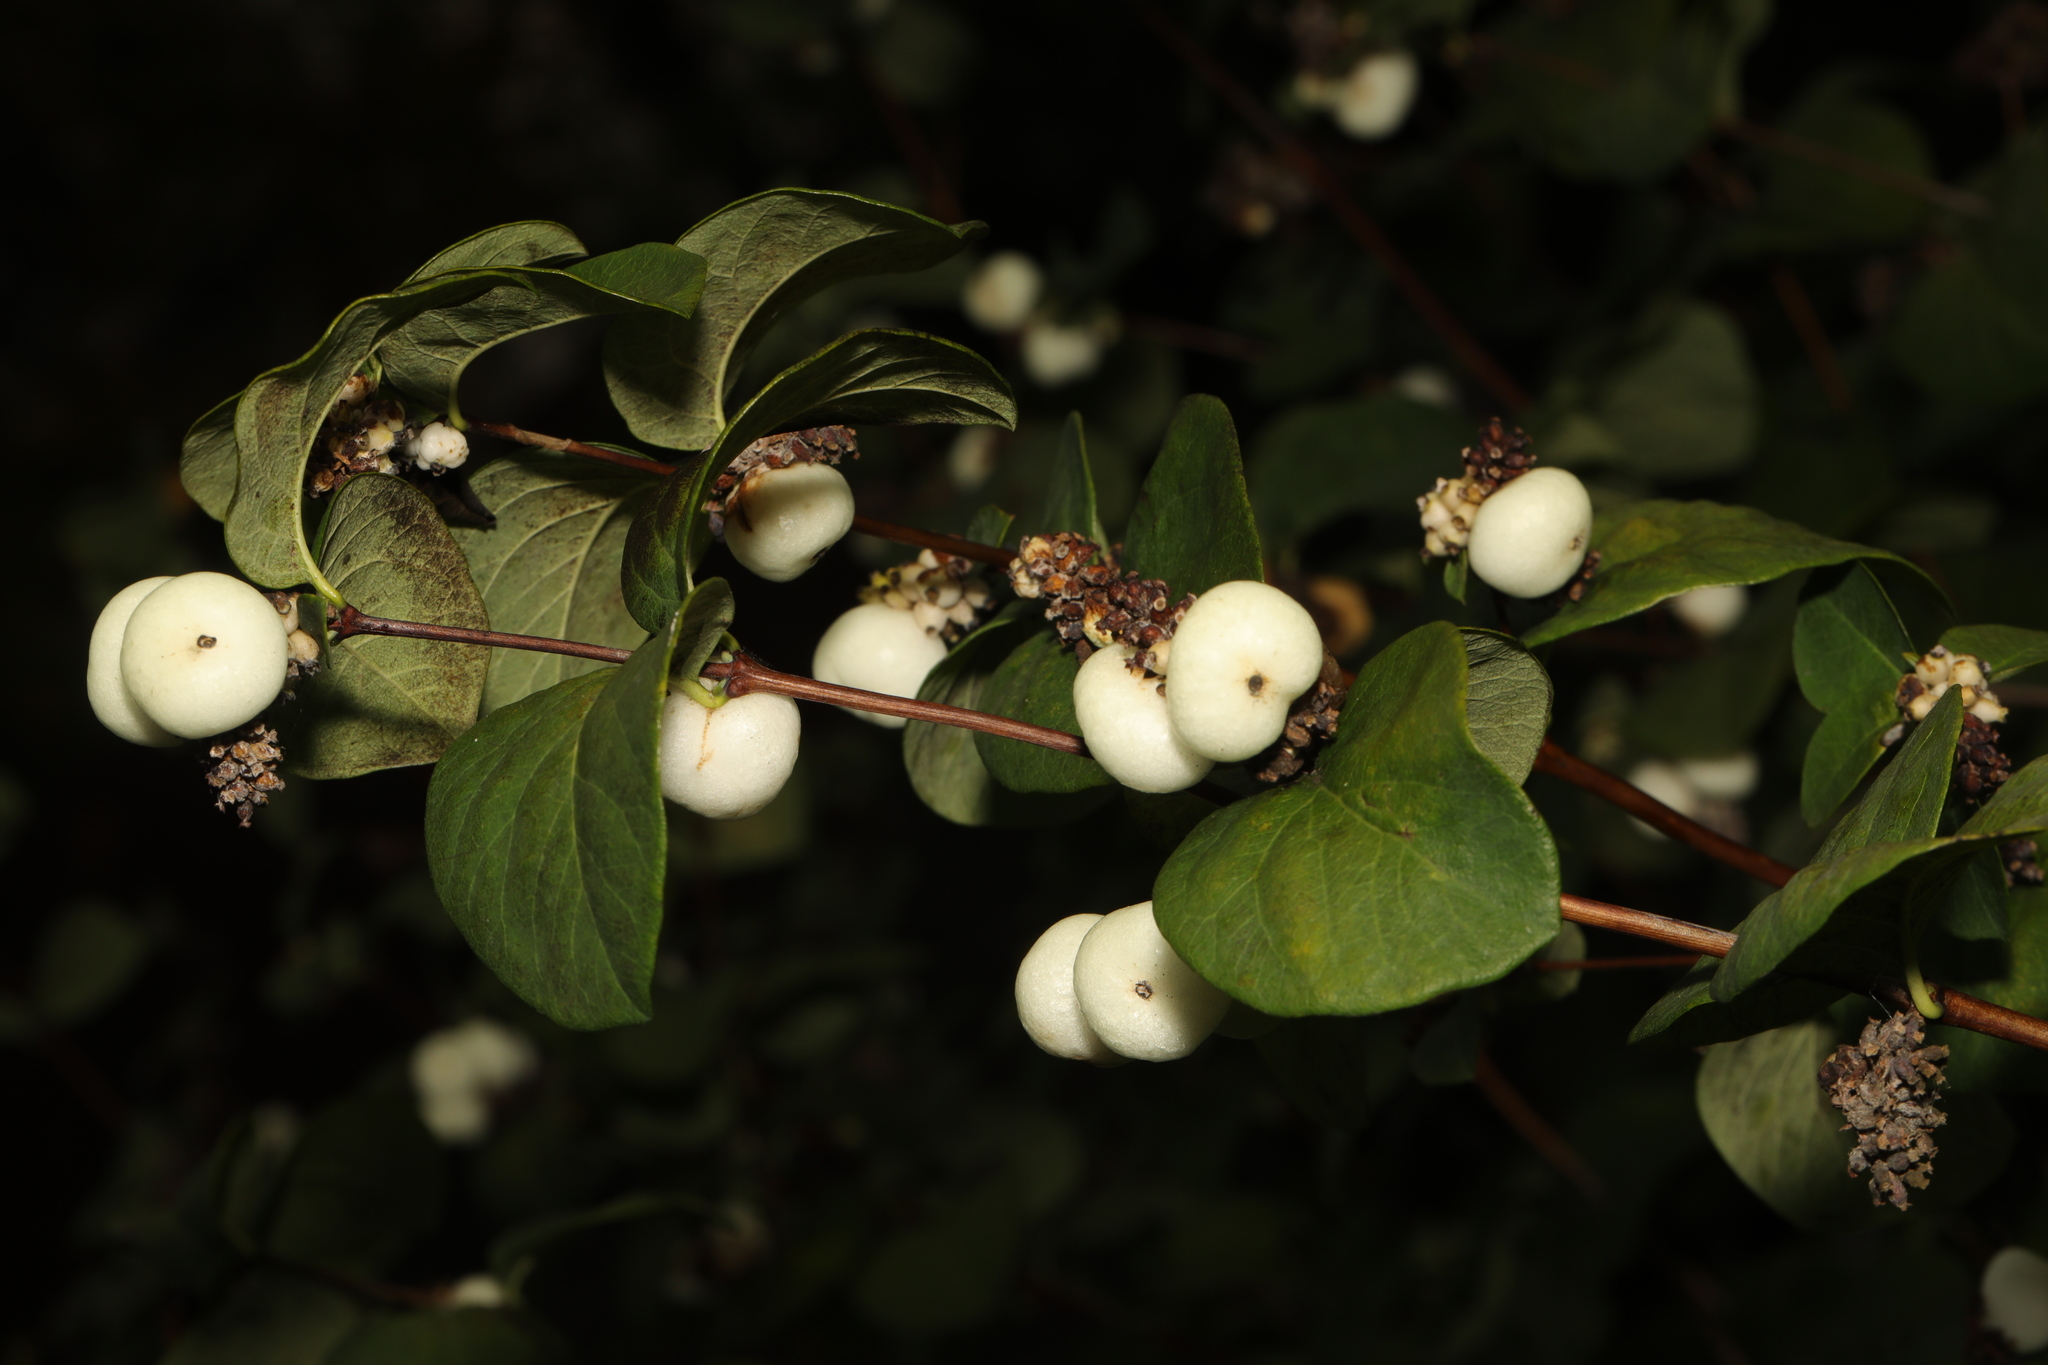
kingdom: Plantae
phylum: Tracheophyta
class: Magnoliopsida
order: Dipsacales
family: Caprifoliaceae
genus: Symphoricarpos
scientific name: Symphoricarpos albus
